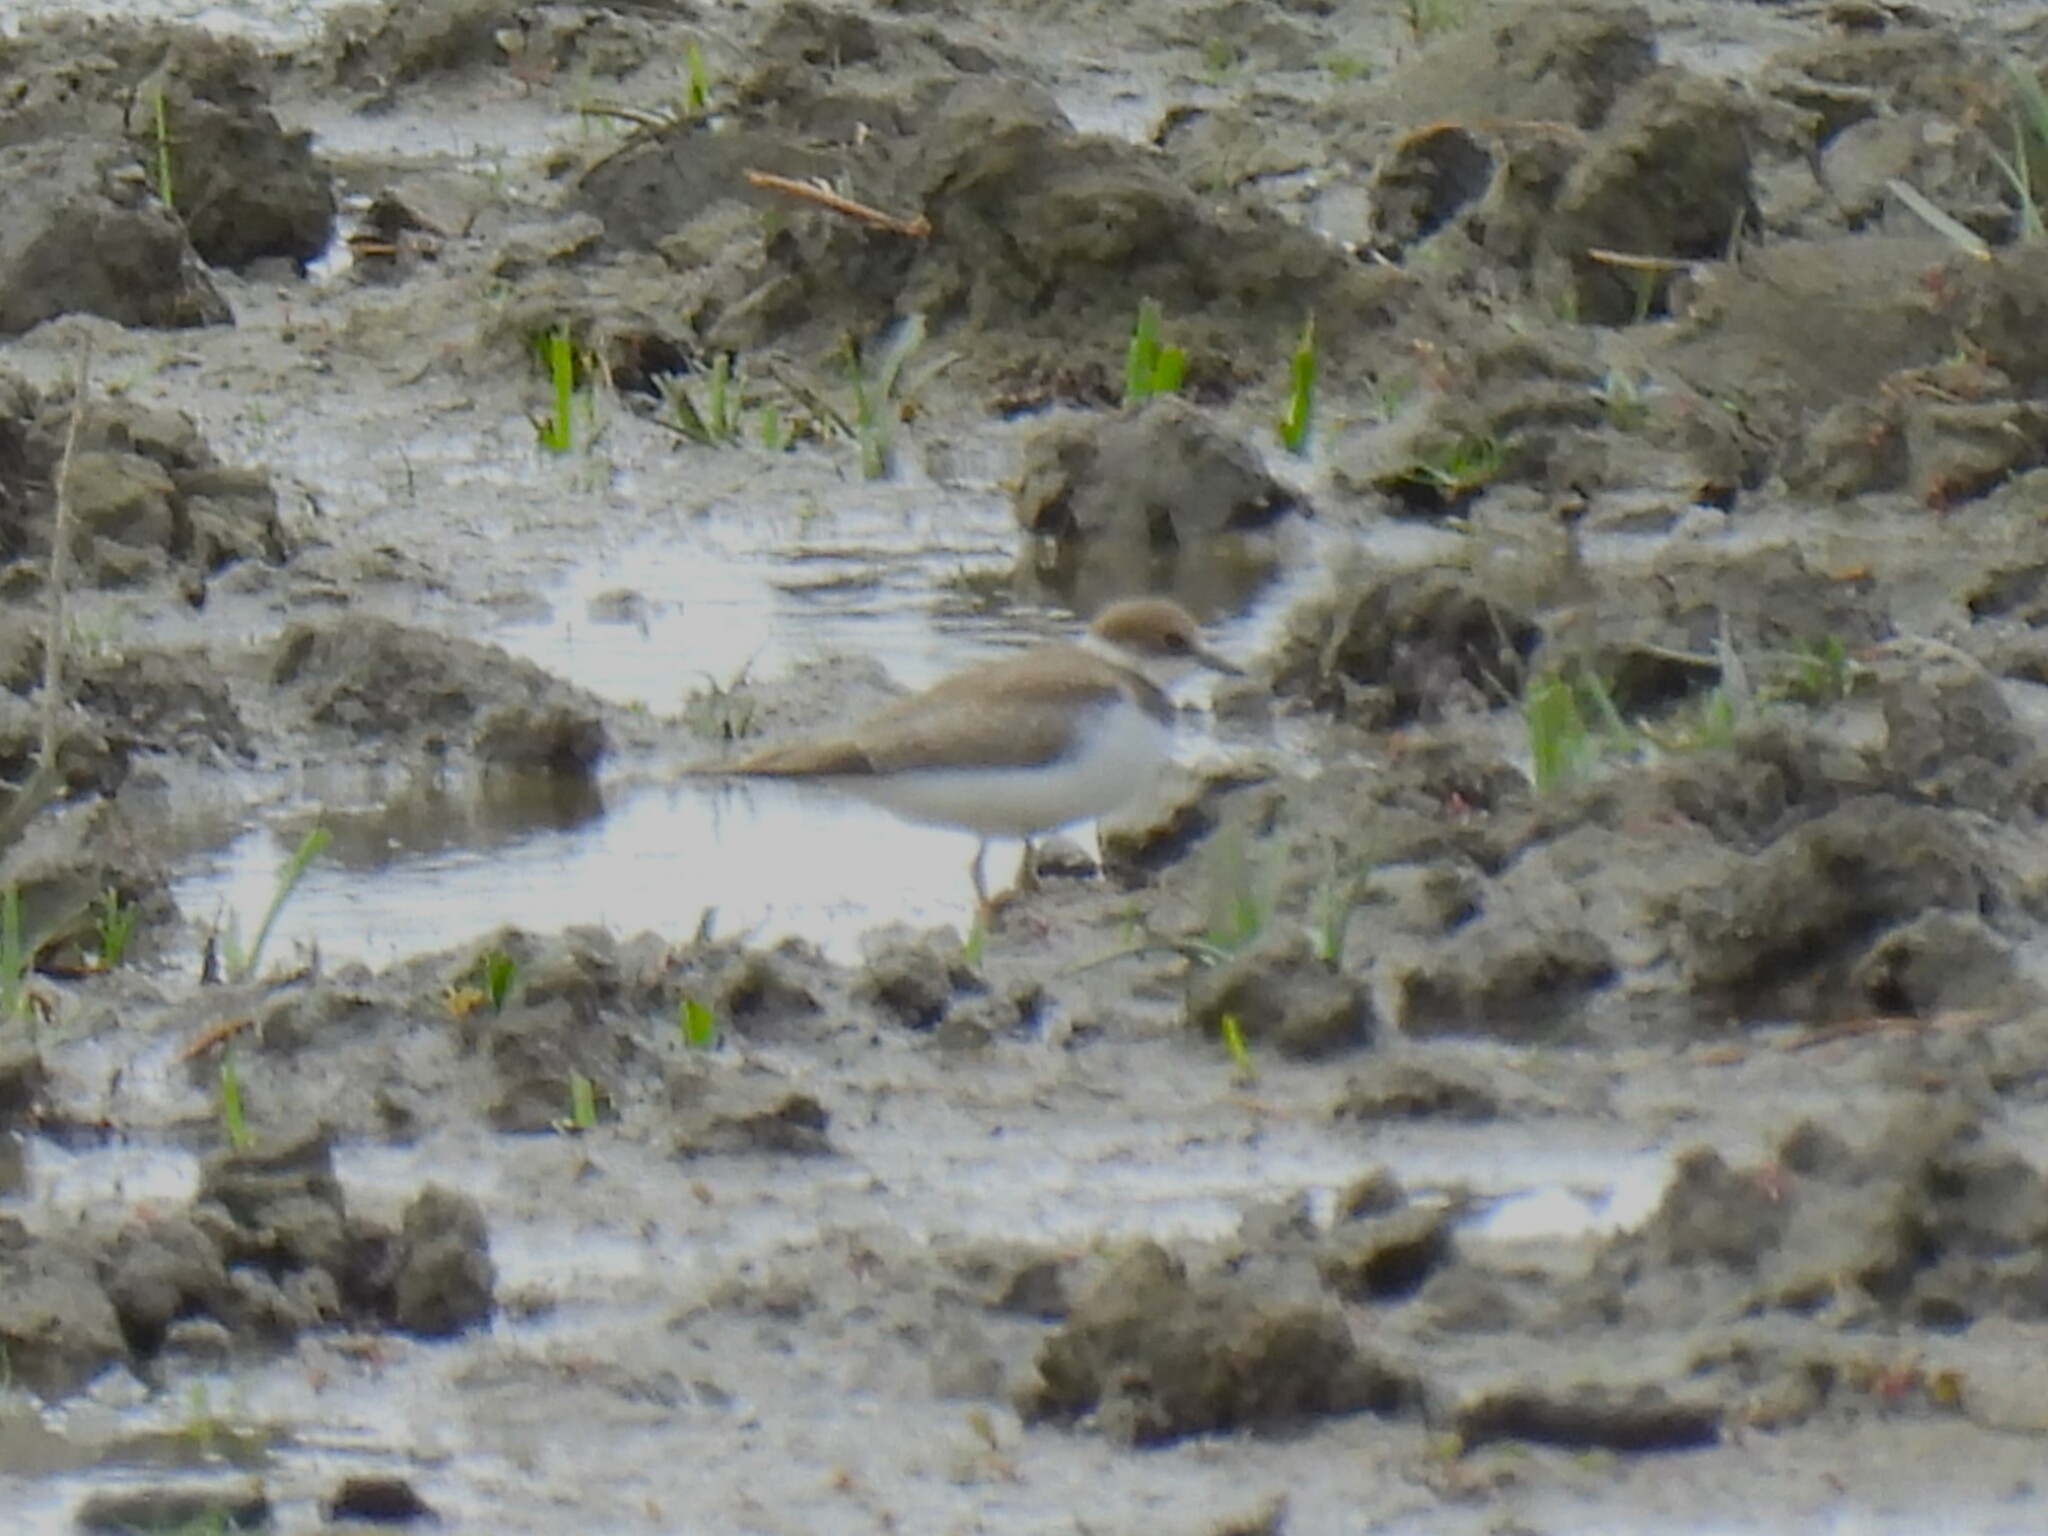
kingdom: Animalia
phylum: Chordata
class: Aves
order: Charadriiformes
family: Charadriidae
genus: Charadrius
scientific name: Charadrius dubius
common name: Little ringed plover
